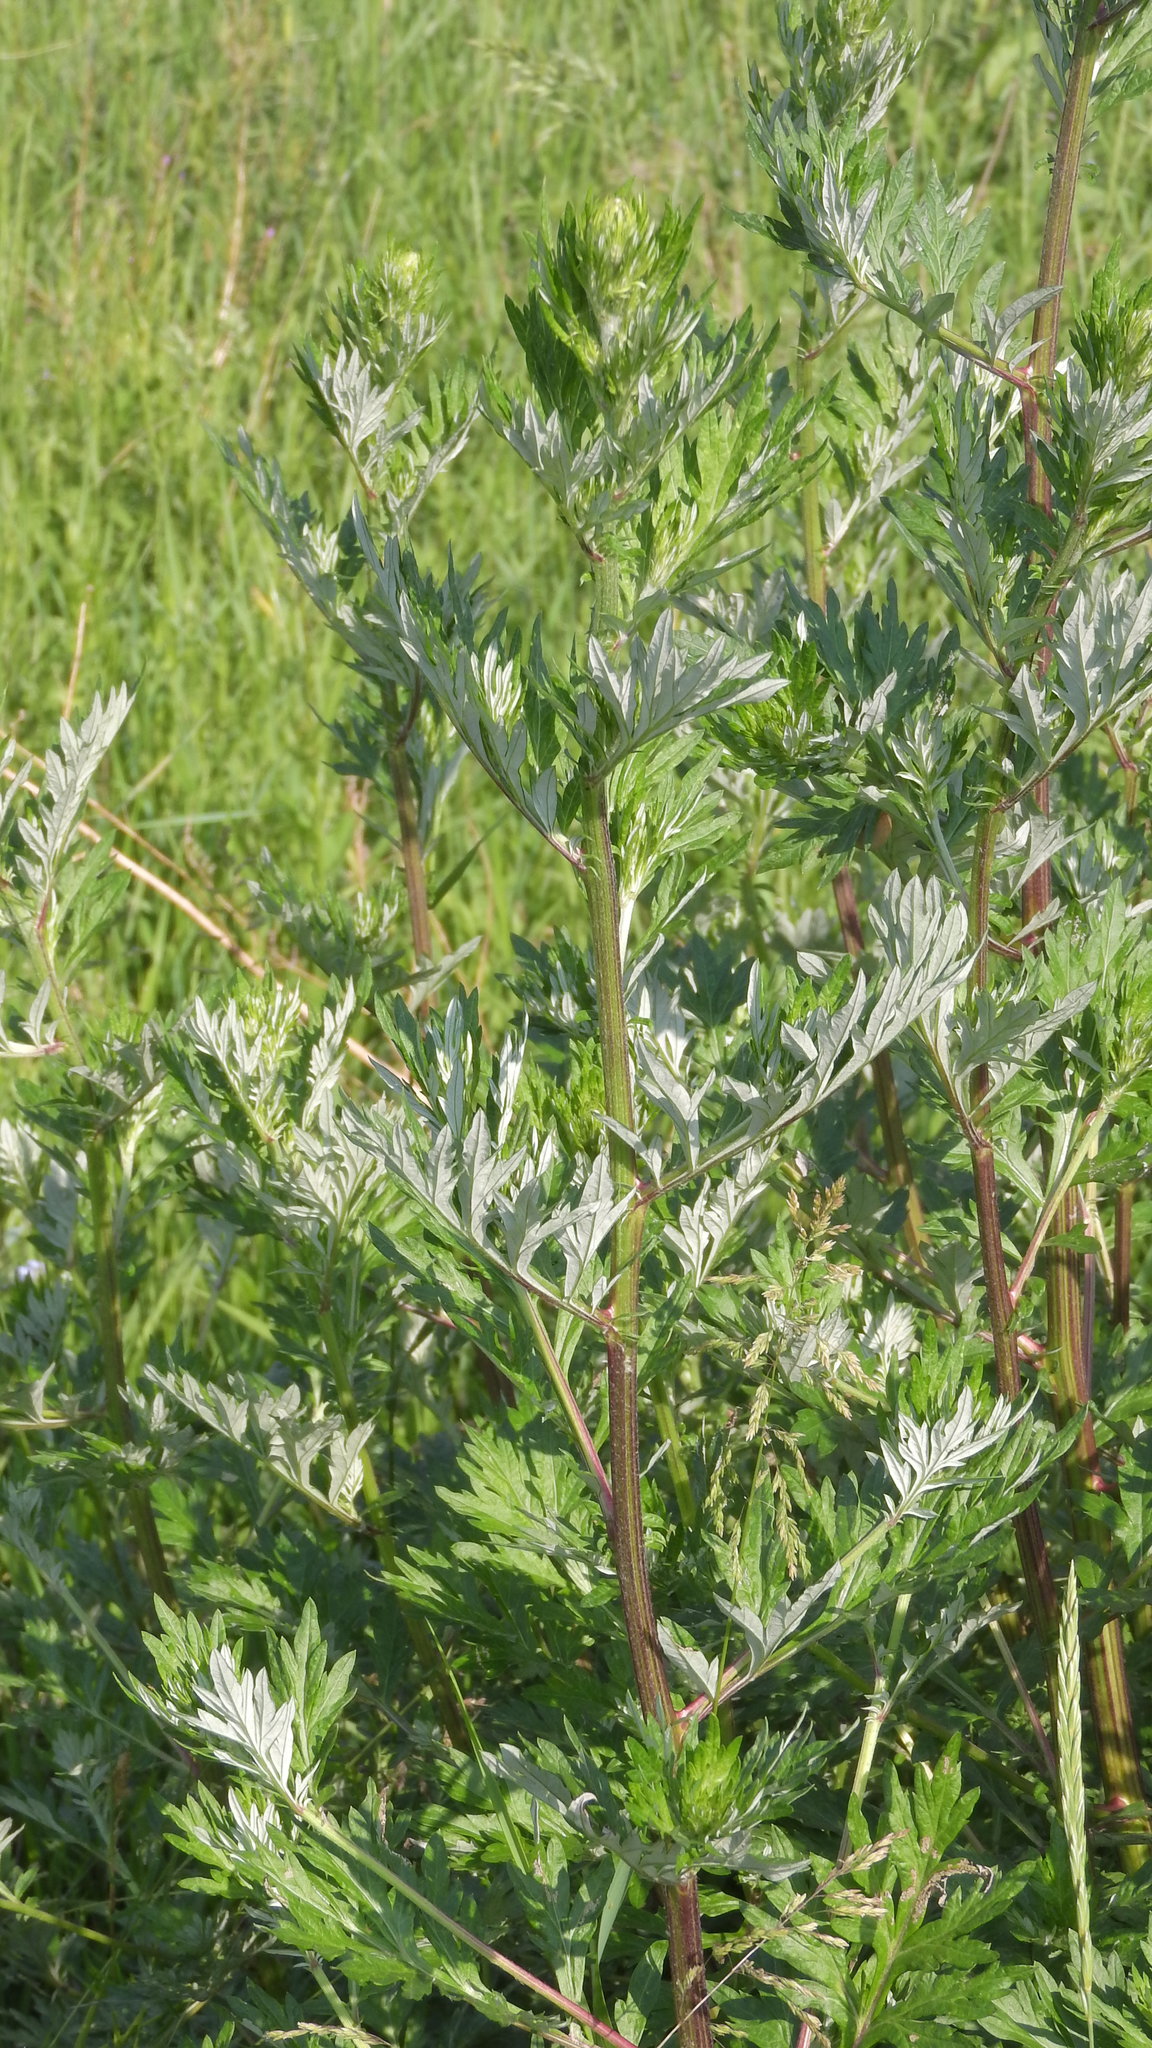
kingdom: Plantae
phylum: Tracheophyta
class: Magnoliopsida
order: Asterales
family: Asteraceae
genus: Artemisia
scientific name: Artemisia vulgaris
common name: Mugwort
